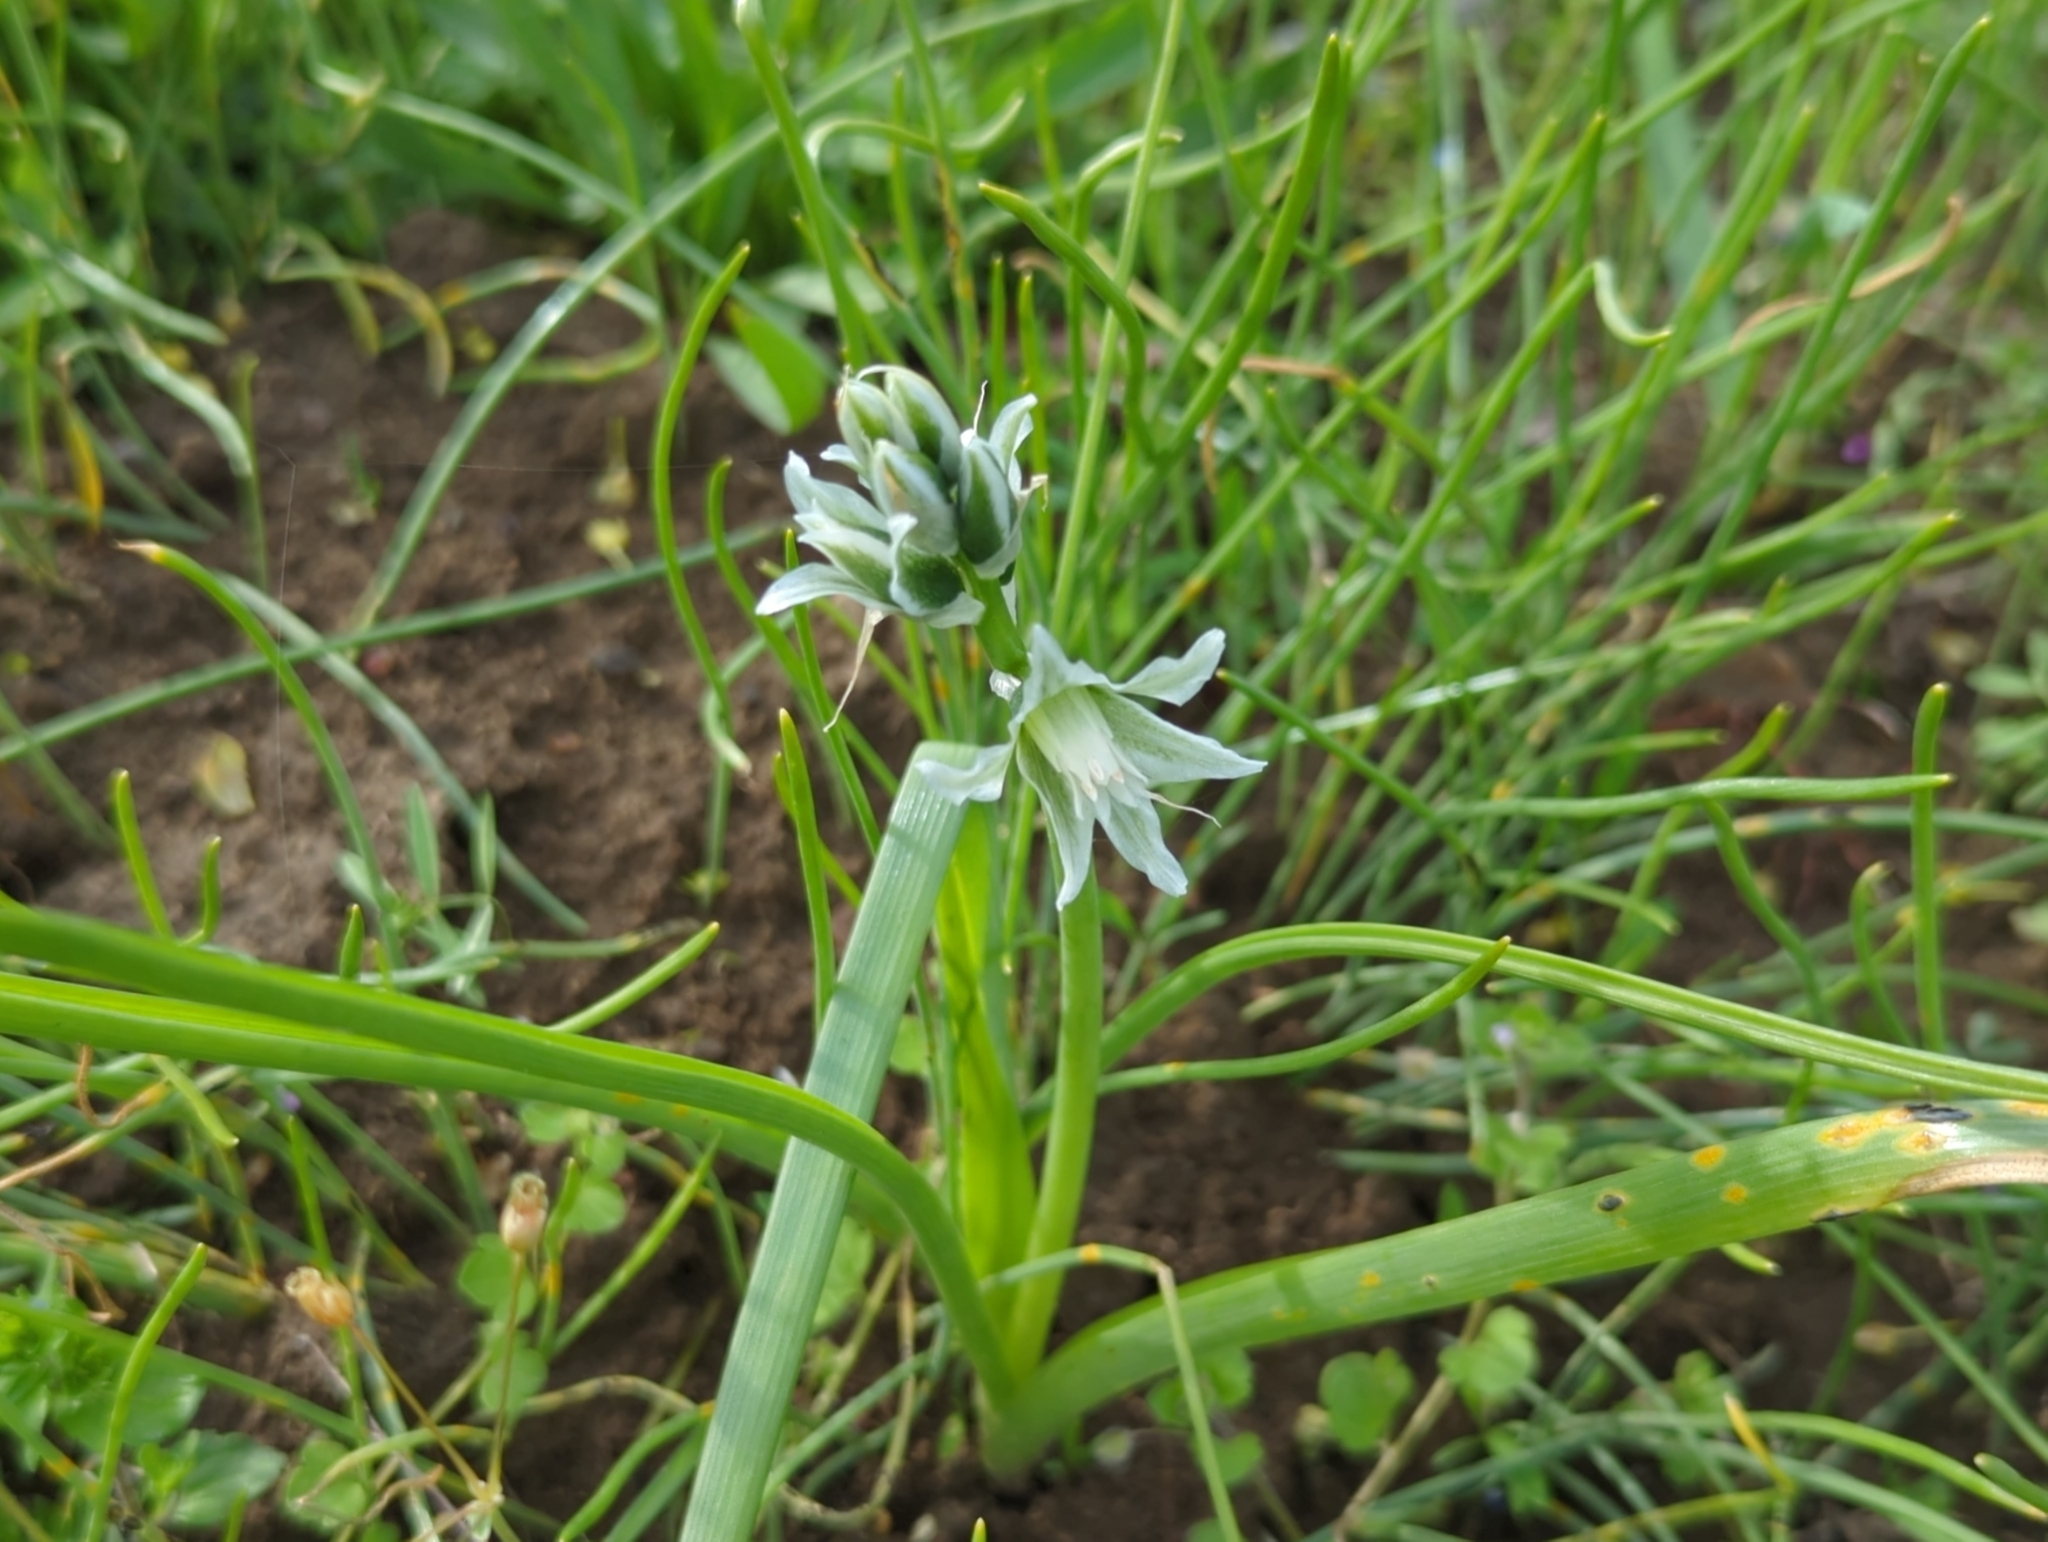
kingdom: Plantae
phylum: Tracheophyta
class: Liliopsida
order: Asparagales
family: Asparagaceae
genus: Ornithogalum
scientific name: Ornithogalum boucheanum
